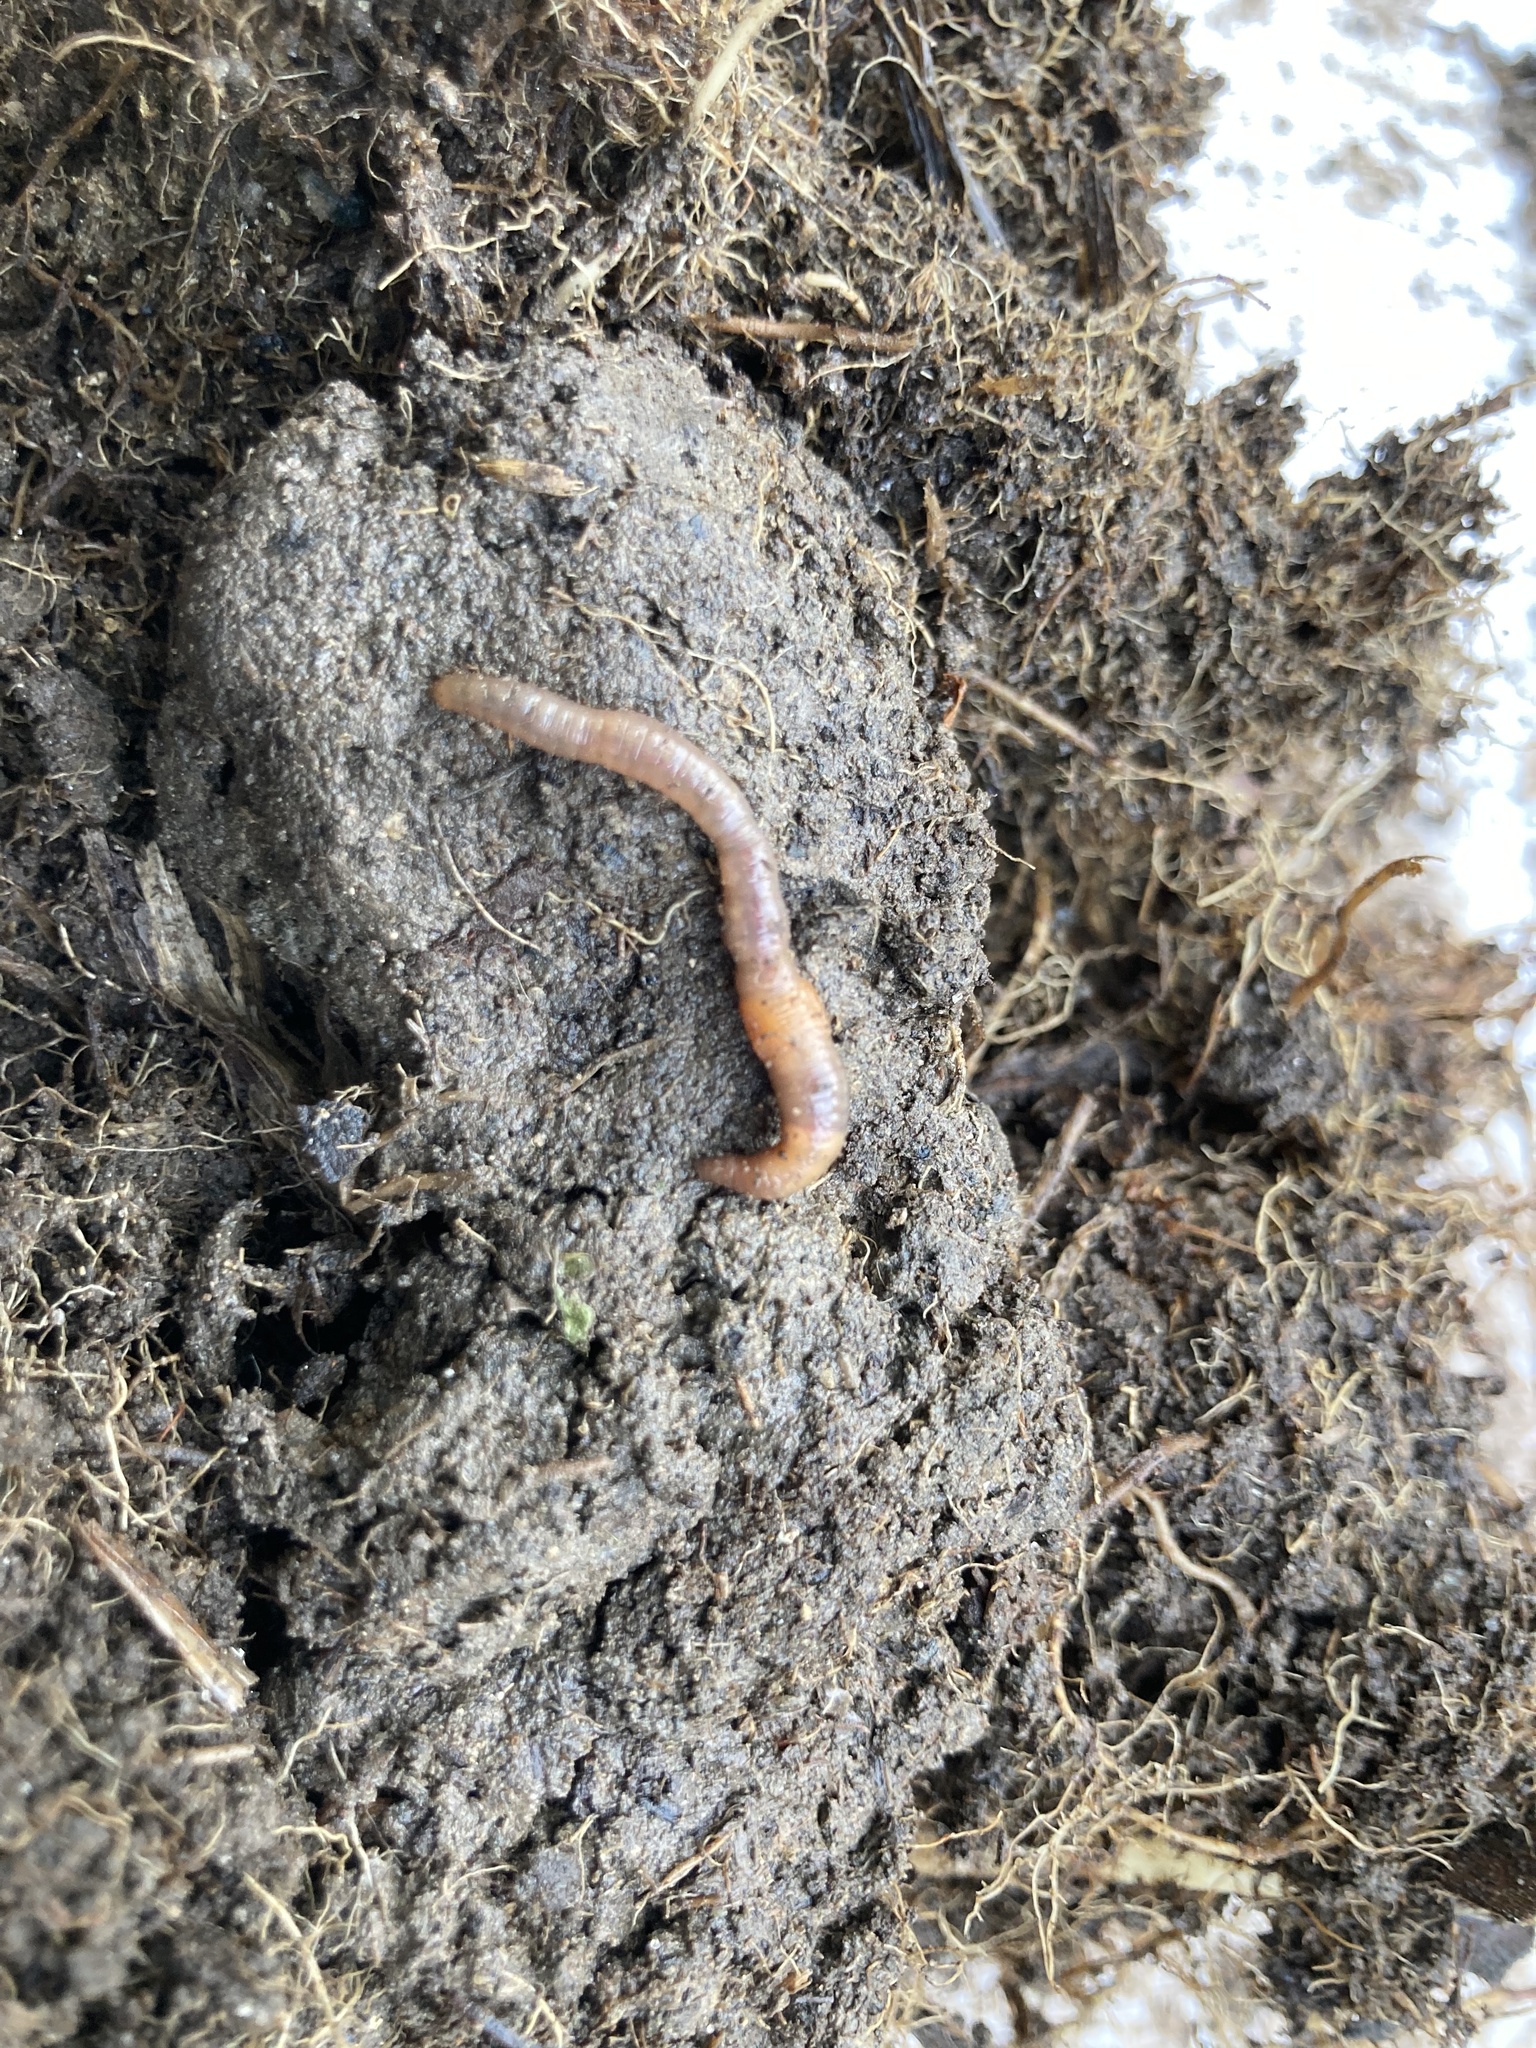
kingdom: Animalia
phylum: Annelida
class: Clitellata
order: Crassiclitellata
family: Lumbricidae
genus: Eiseniella
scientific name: Eiseniella tetraedra
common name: Square-tailed worm
